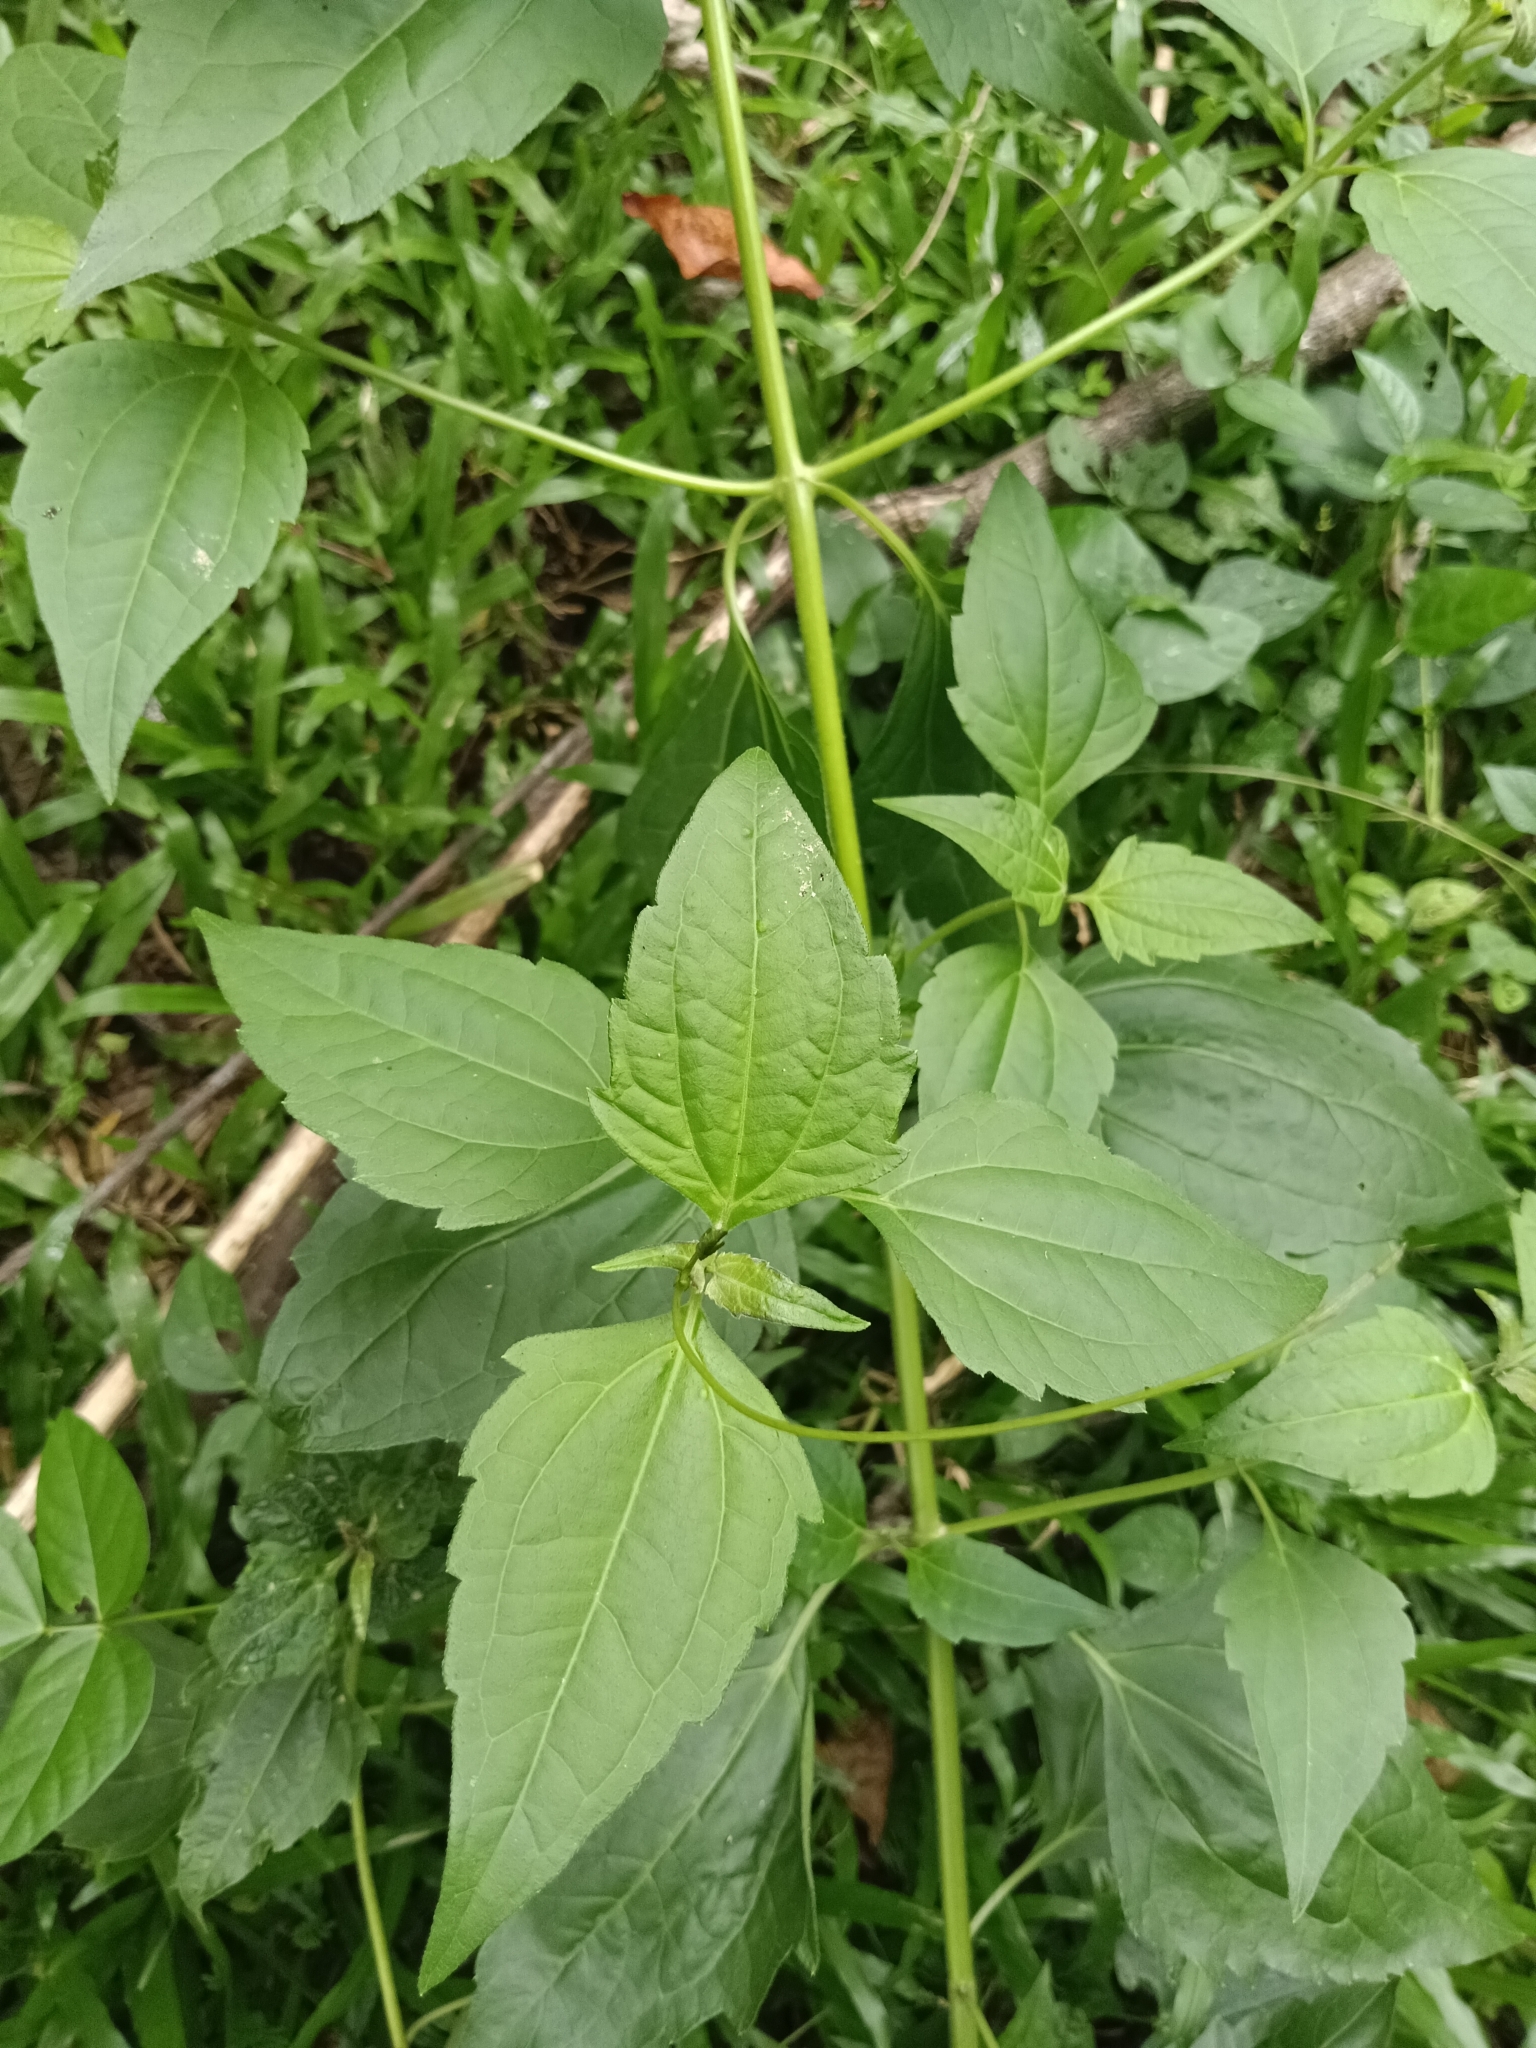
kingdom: Plantae
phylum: Tracheophyta
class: Magnoliopsida
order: Asterales
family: Asteraceae
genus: Chromolaena
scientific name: Chromolaena odorata
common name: Siamweed
